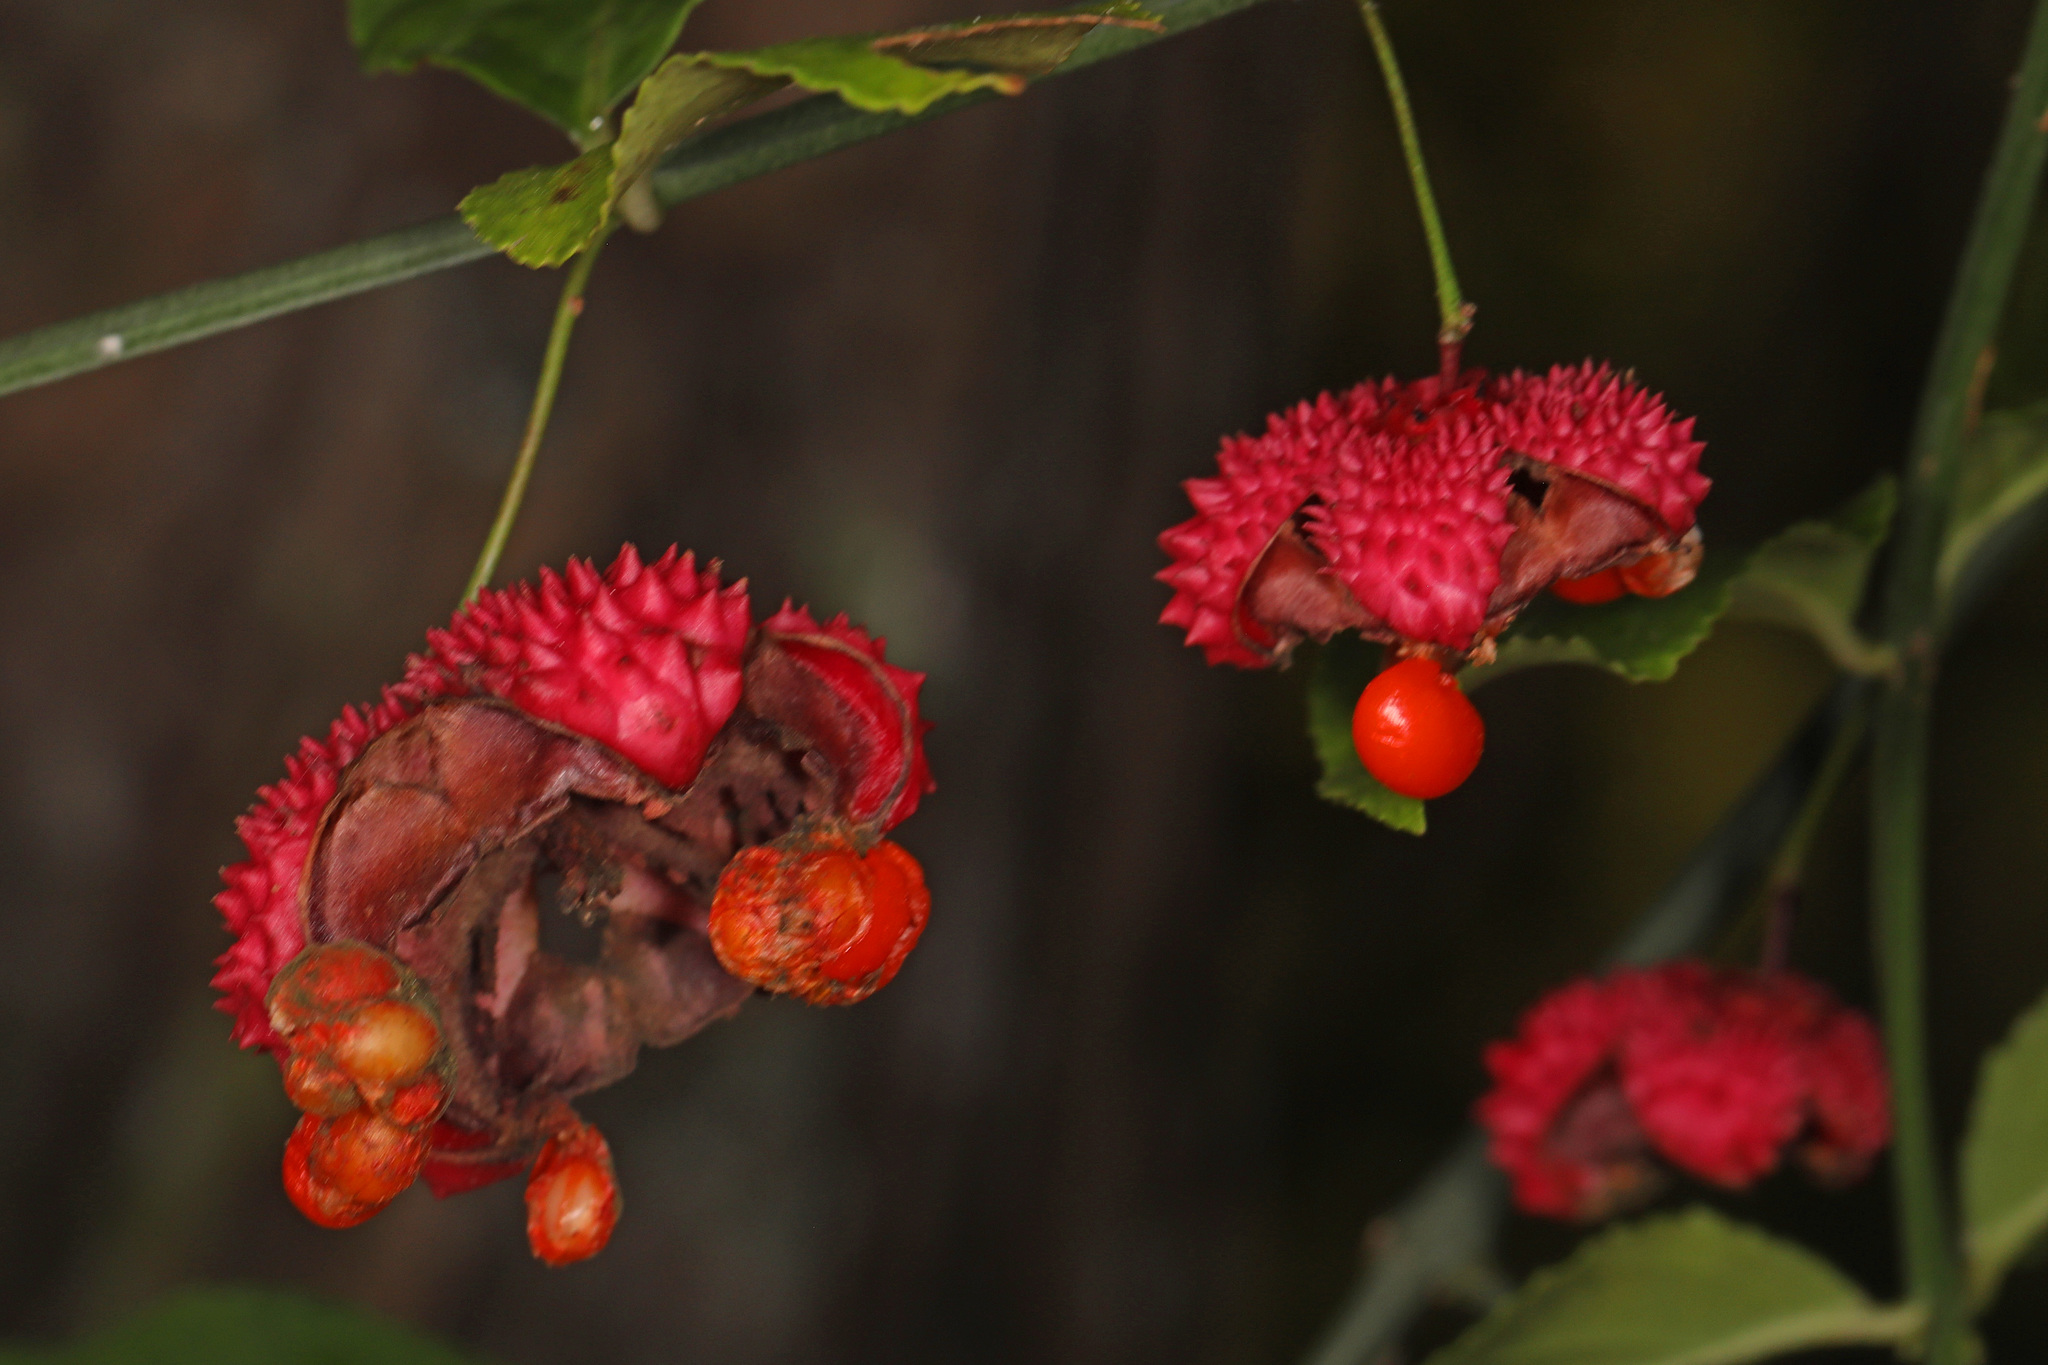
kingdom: Plantae
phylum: Tracheophyta
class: Magnoliopsida
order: Celastrales
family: Celastraceae
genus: Euonymus
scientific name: Euonymus americanus
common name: Bursting-heart
